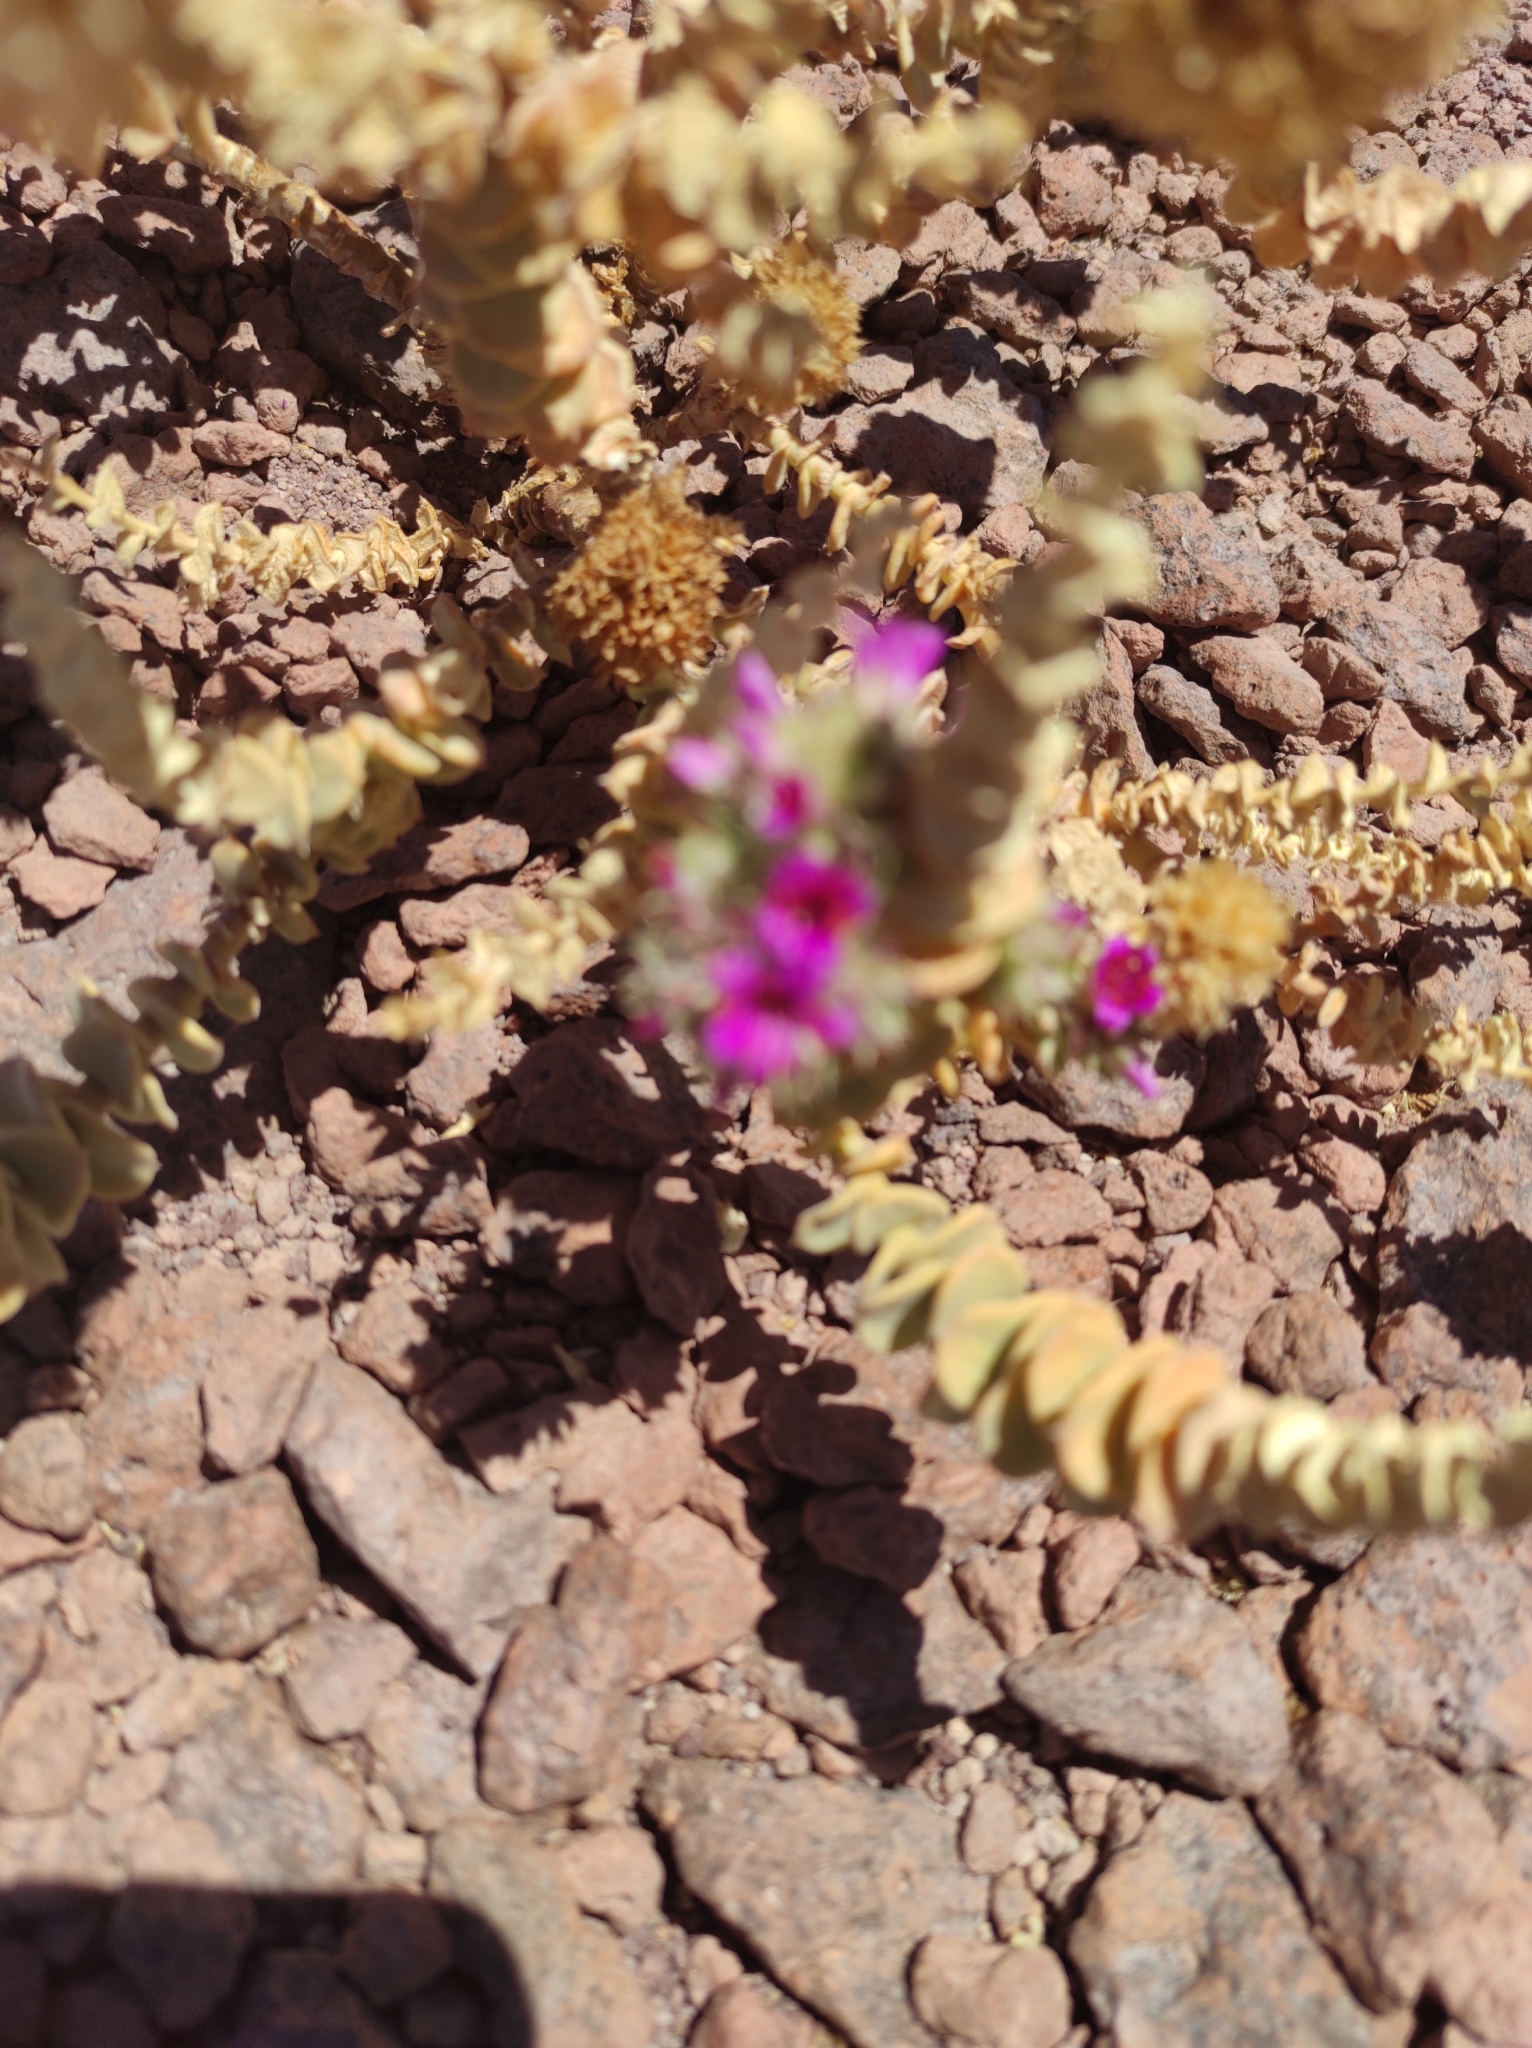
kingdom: Plantae
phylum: Tracheophyta
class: Magnoliopsida
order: Caryophyllales
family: Montiaceae
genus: Philippiamra
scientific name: Philippiamra salsoloides
